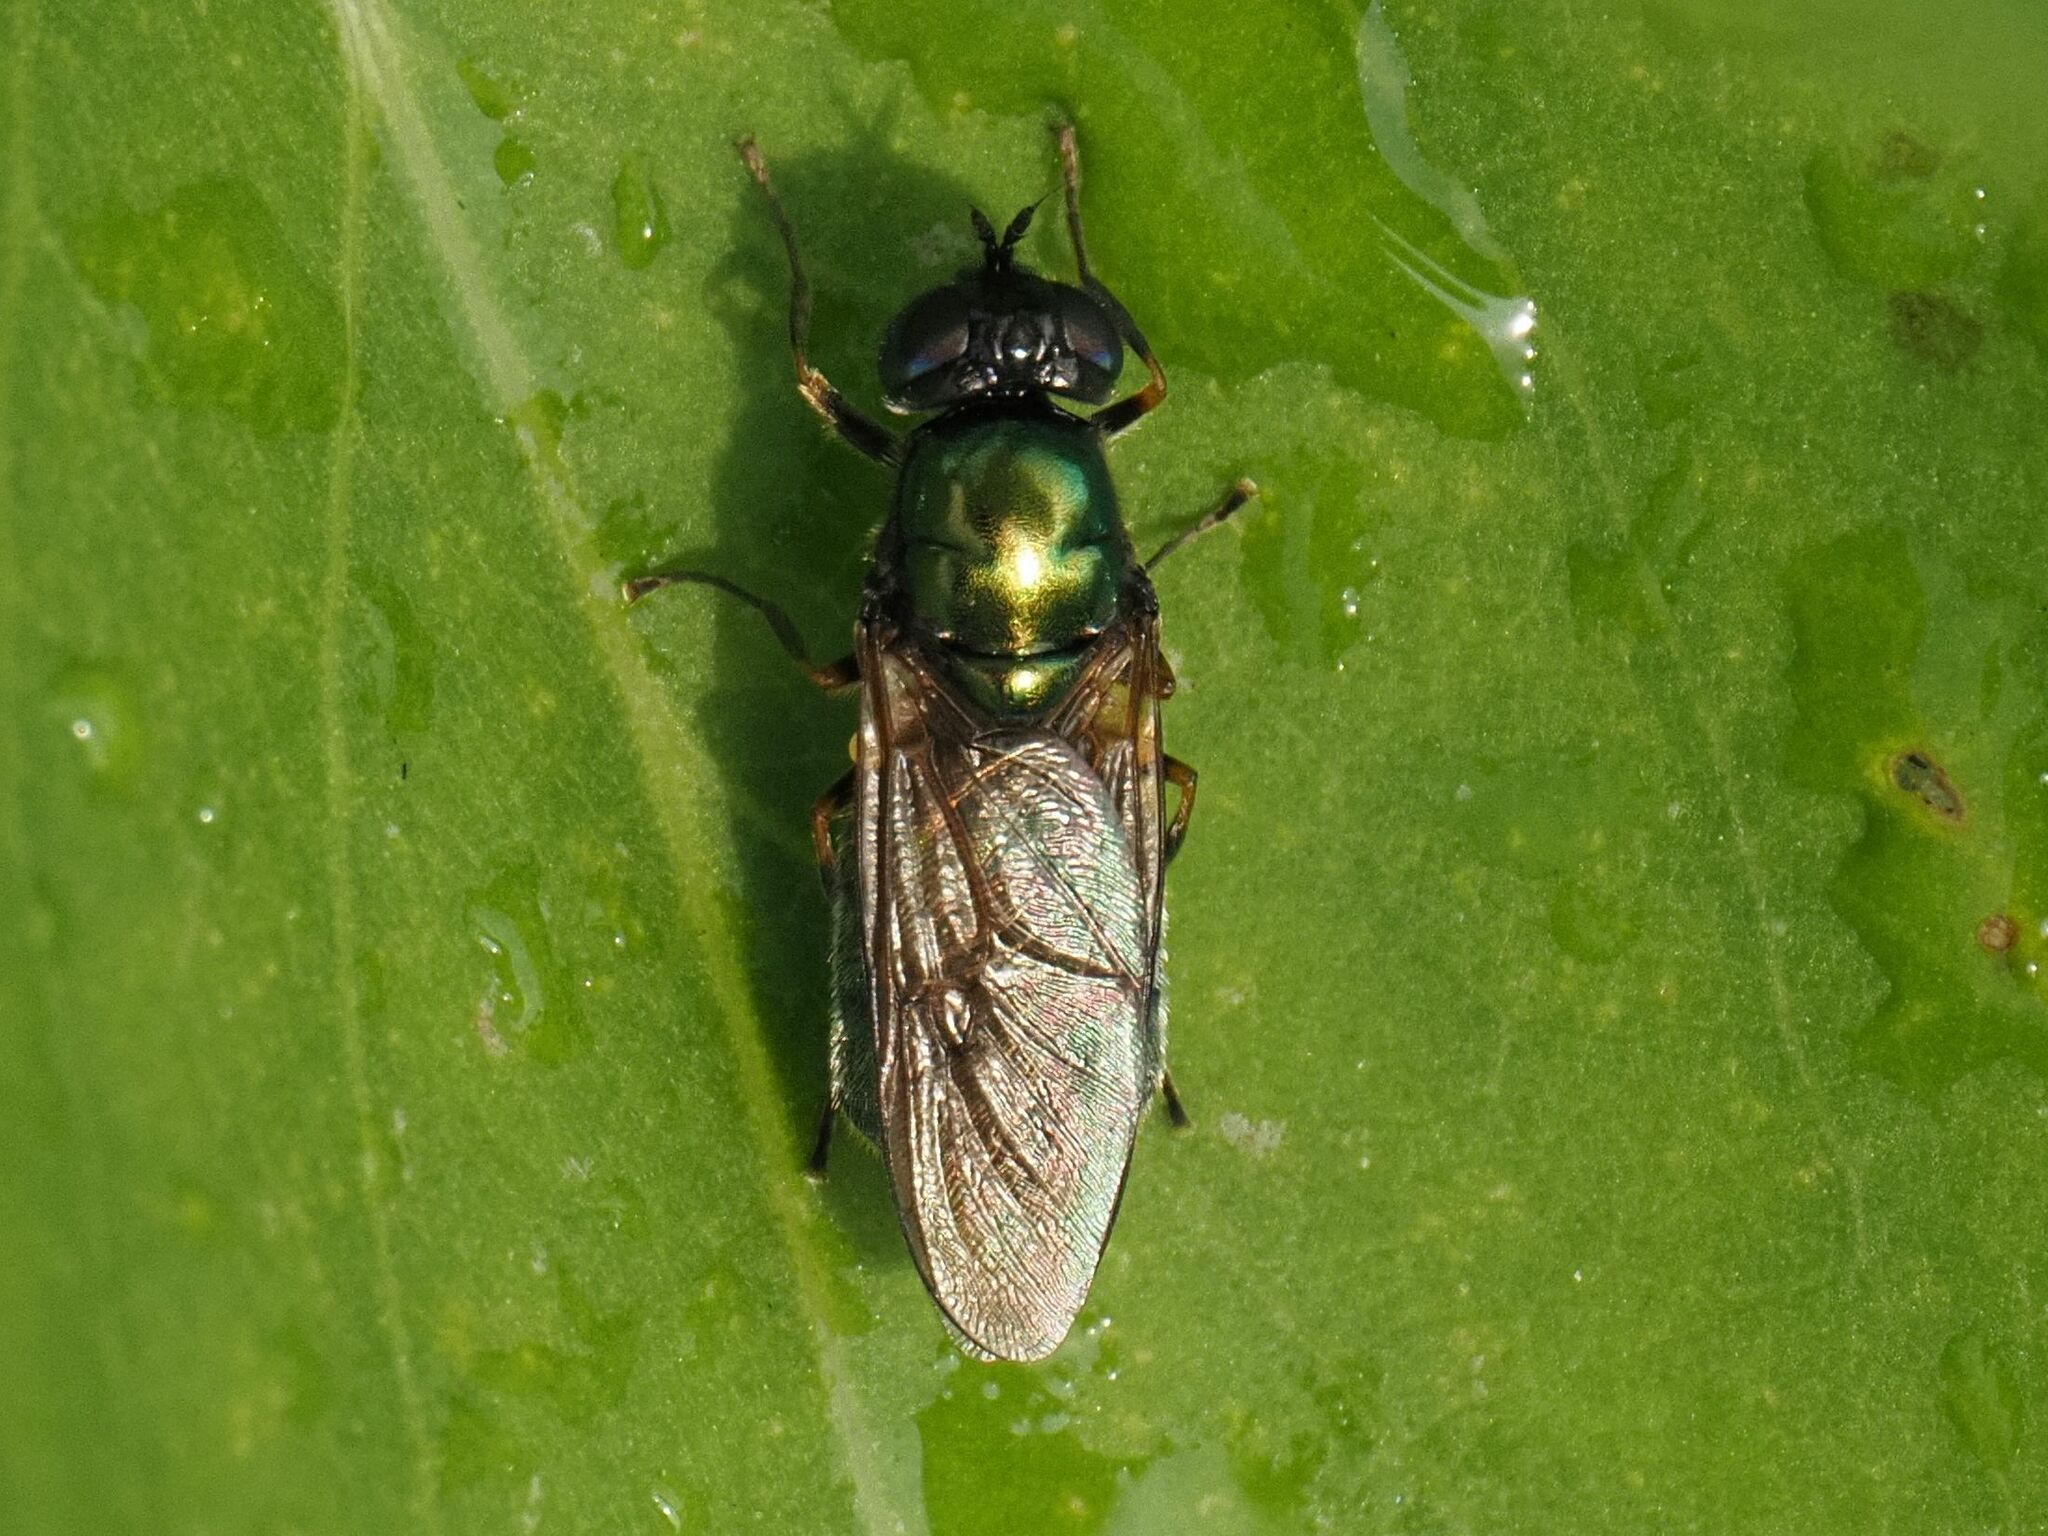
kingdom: Animalia
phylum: Arthropoda
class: Insecta
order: Diptera
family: Stratiomyidae
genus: Chloromyia
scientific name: Chloromyia formosa
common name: Soldier fly
